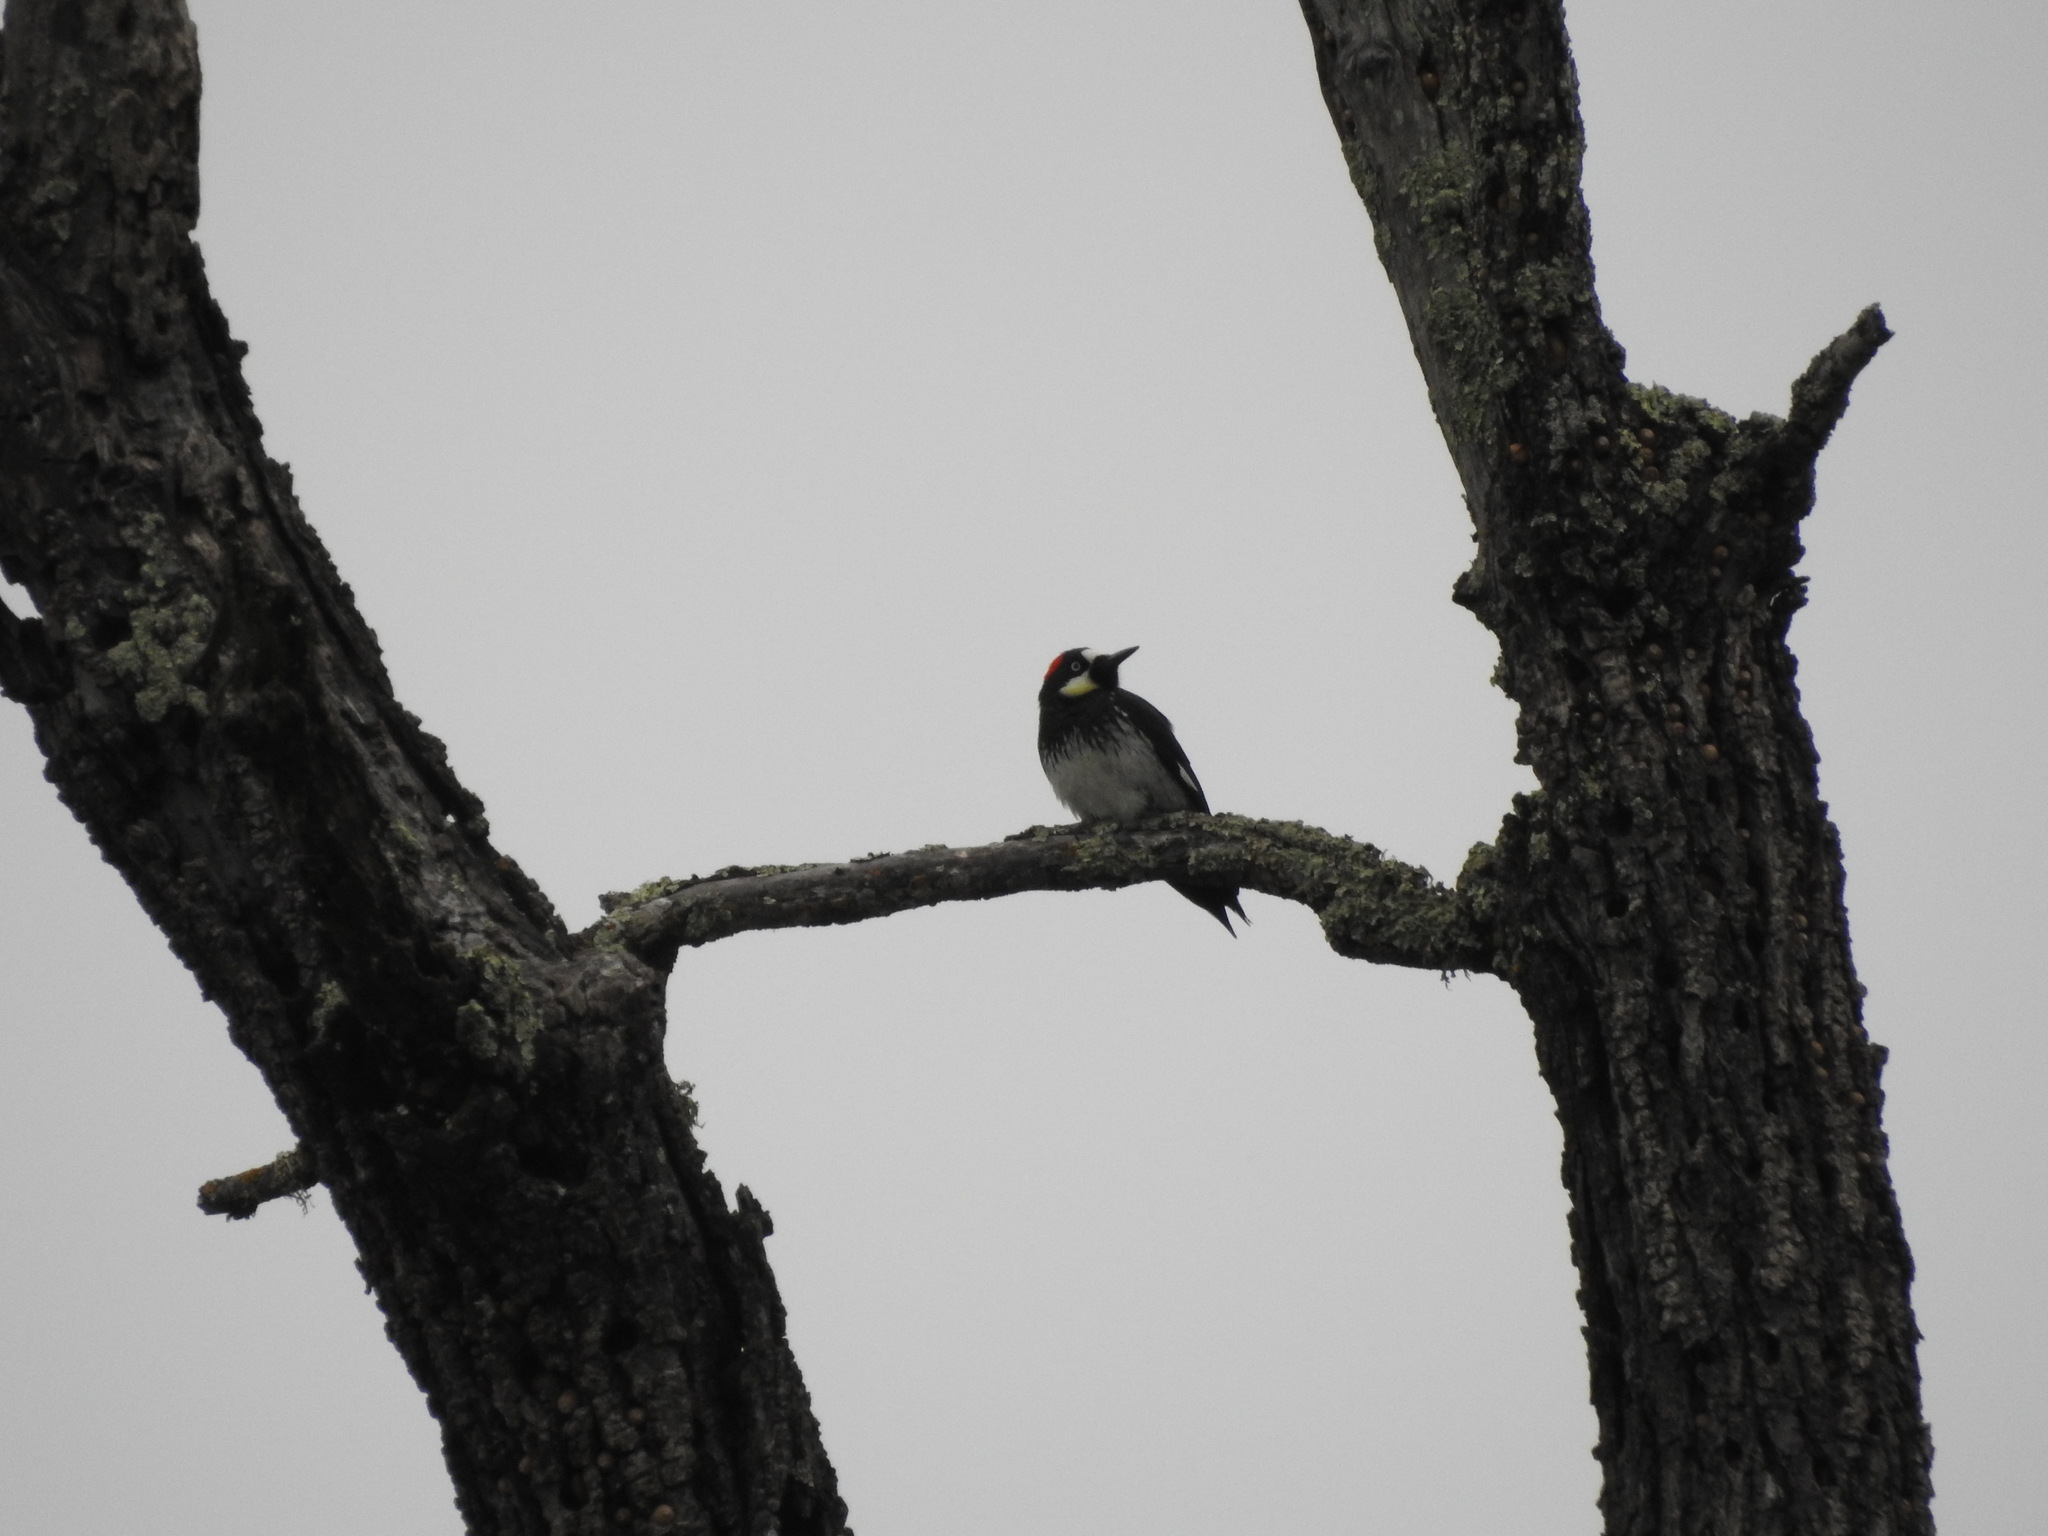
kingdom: Animalia
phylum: Chordata
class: Aves
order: Piciformes
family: Picidae
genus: Melanerpes
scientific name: Melanerpes formicivorus
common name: Acorn woodpecker
